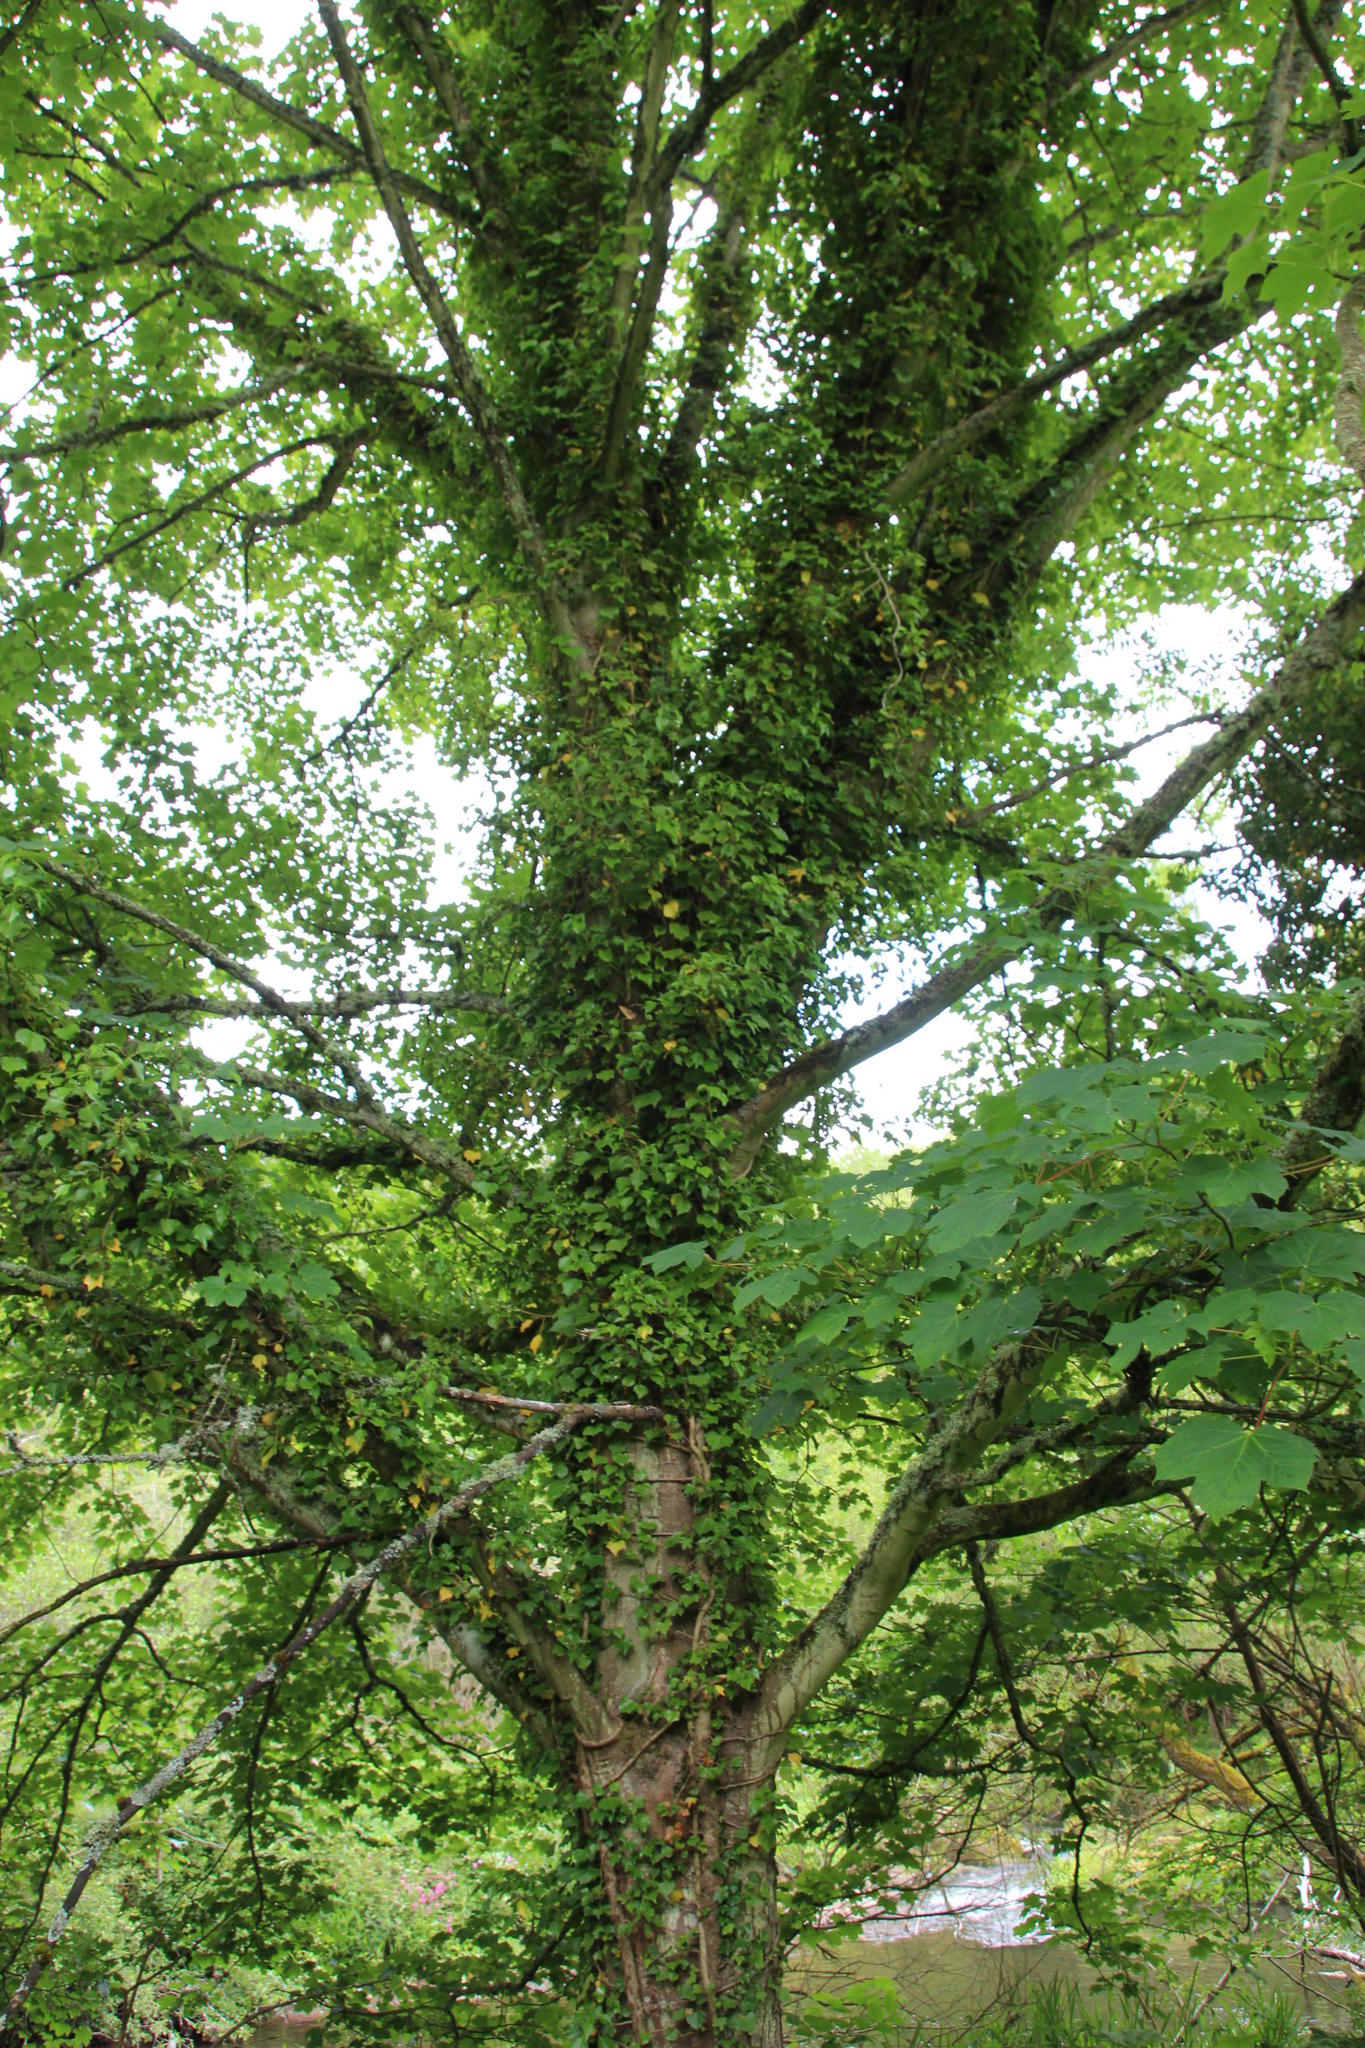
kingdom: Plantae
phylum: Tracheophyta
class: Magnoliopsida
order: Apiales
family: Araliaceae
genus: Hedera
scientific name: Hedera helix
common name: Ivy
